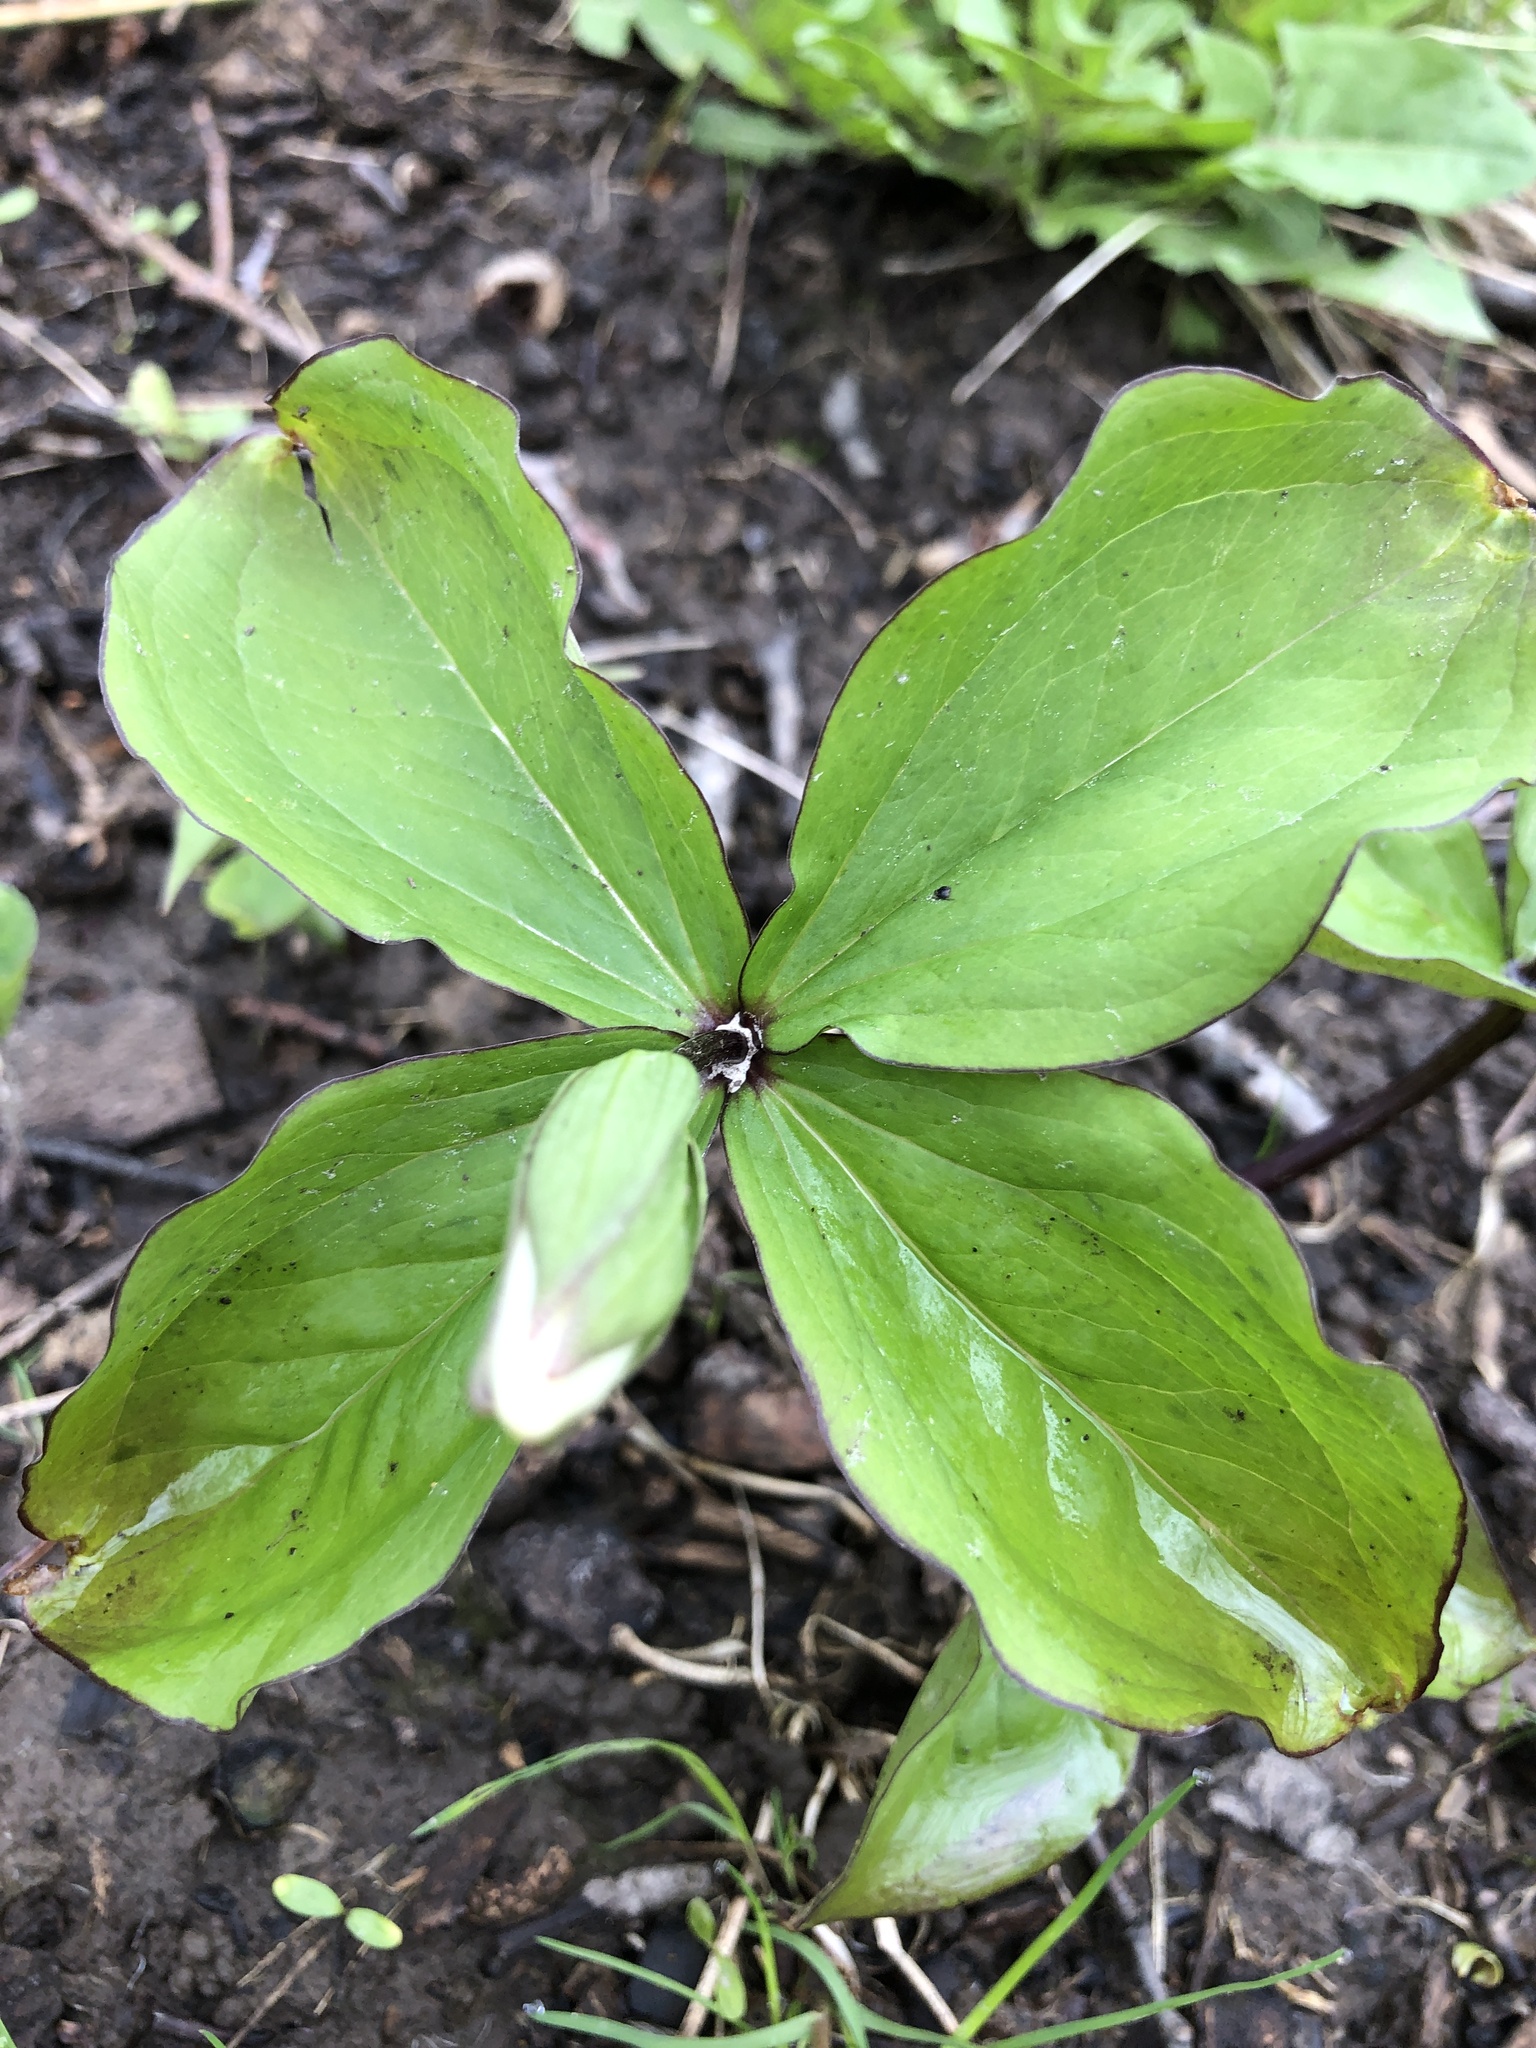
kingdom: Plantae
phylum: Tracheophyta
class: Liliopsida
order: Liliales
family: Melanthiaceae
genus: Trillium
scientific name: Trillium grandiflorum
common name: Great white trillium
